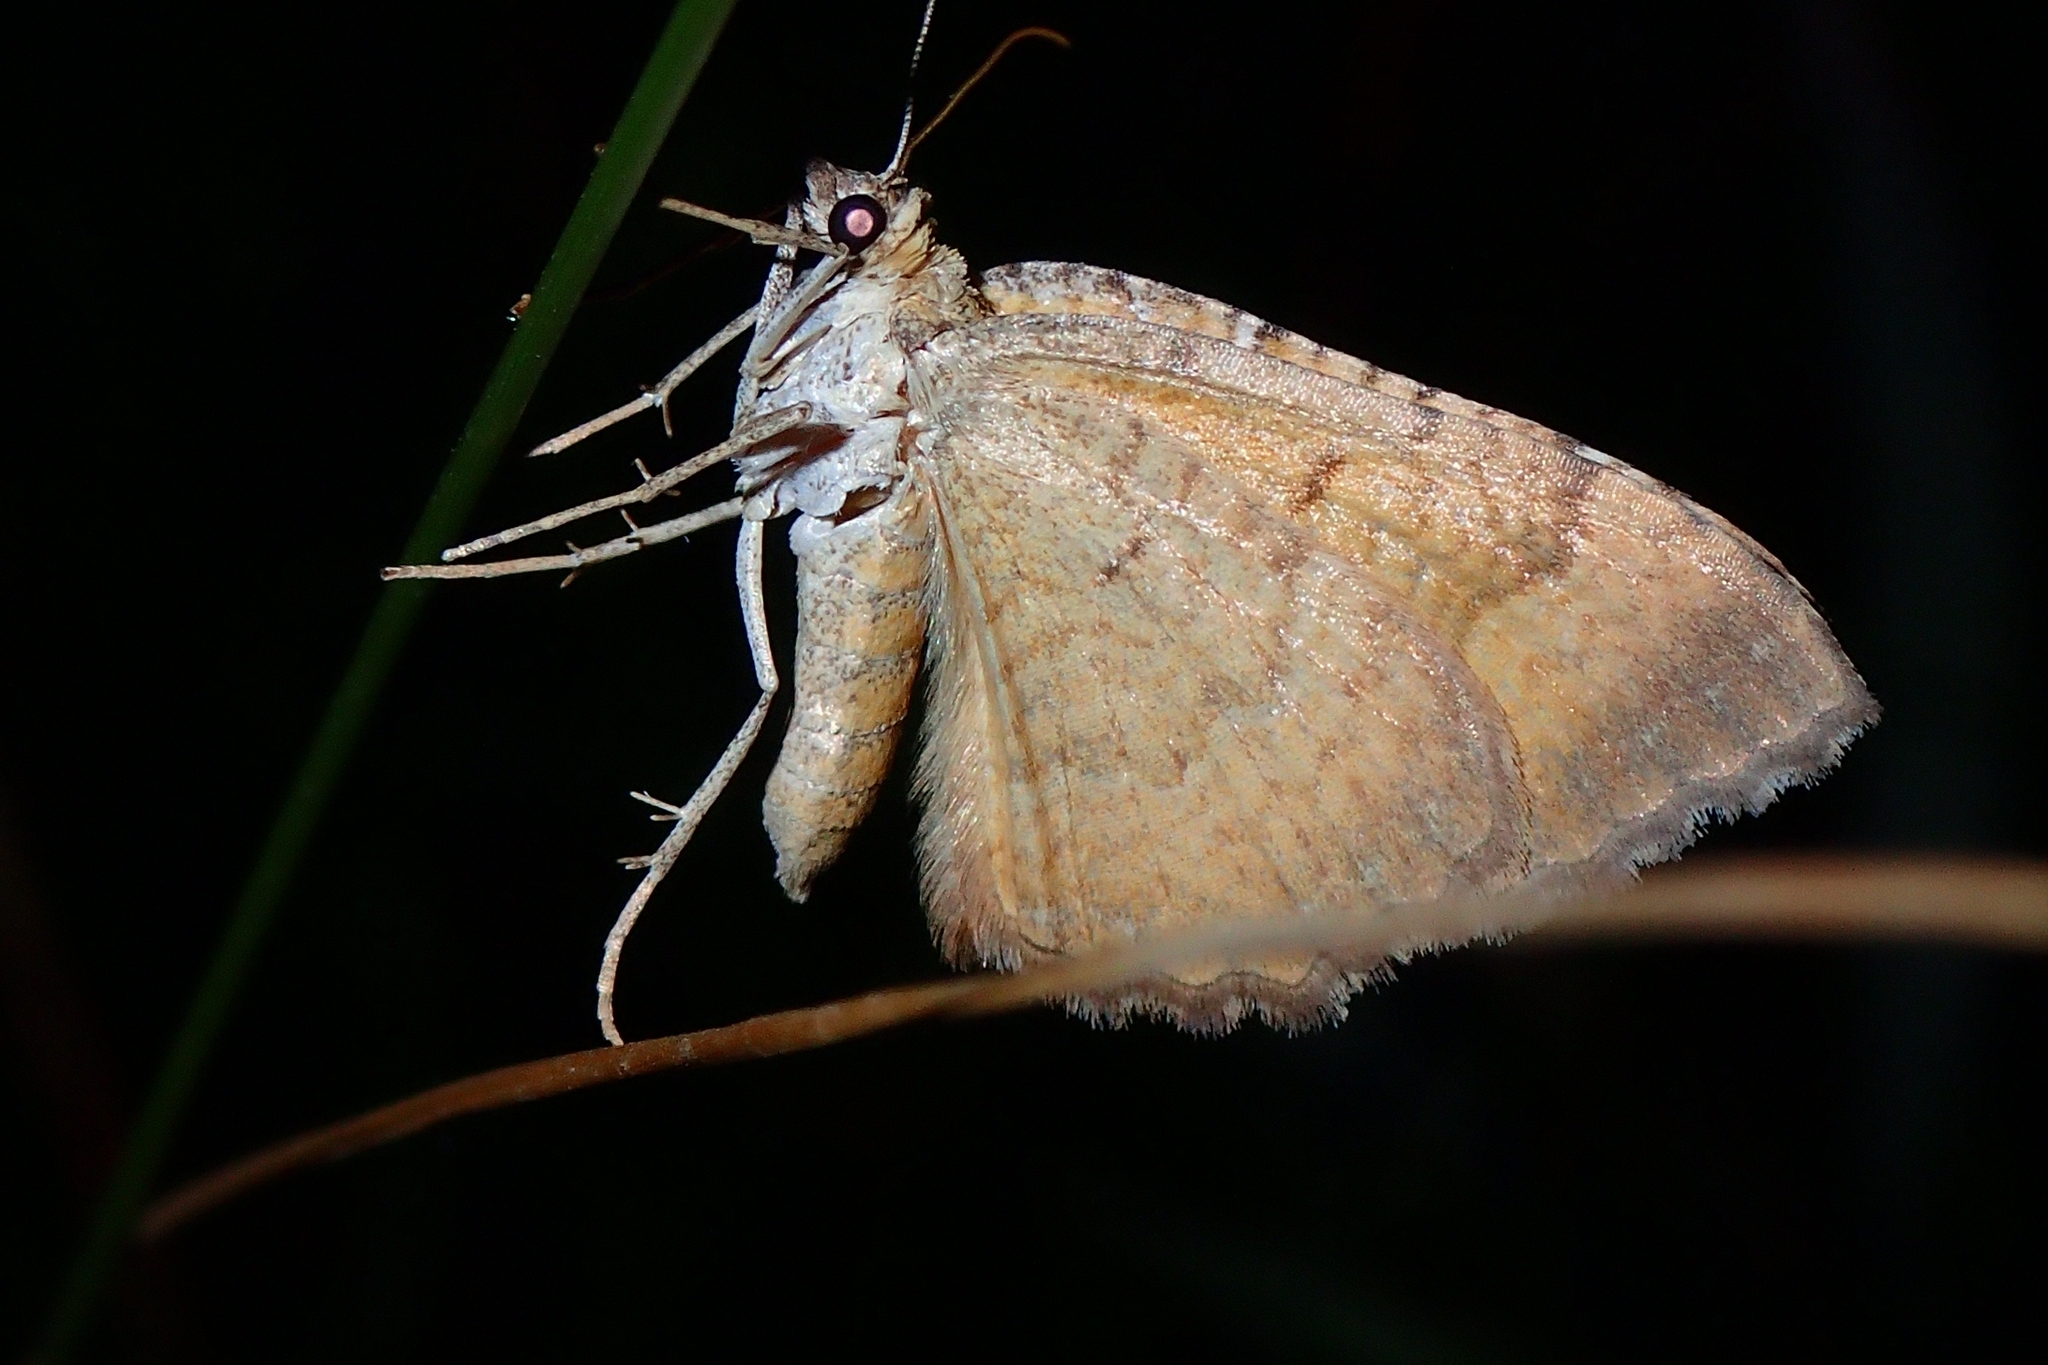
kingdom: Animalia
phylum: Arthropoda
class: Insecta
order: Lepidoptera
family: Geometridae
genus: Camptogramma
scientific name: Camptogramma bilineata
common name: Yellow shell
